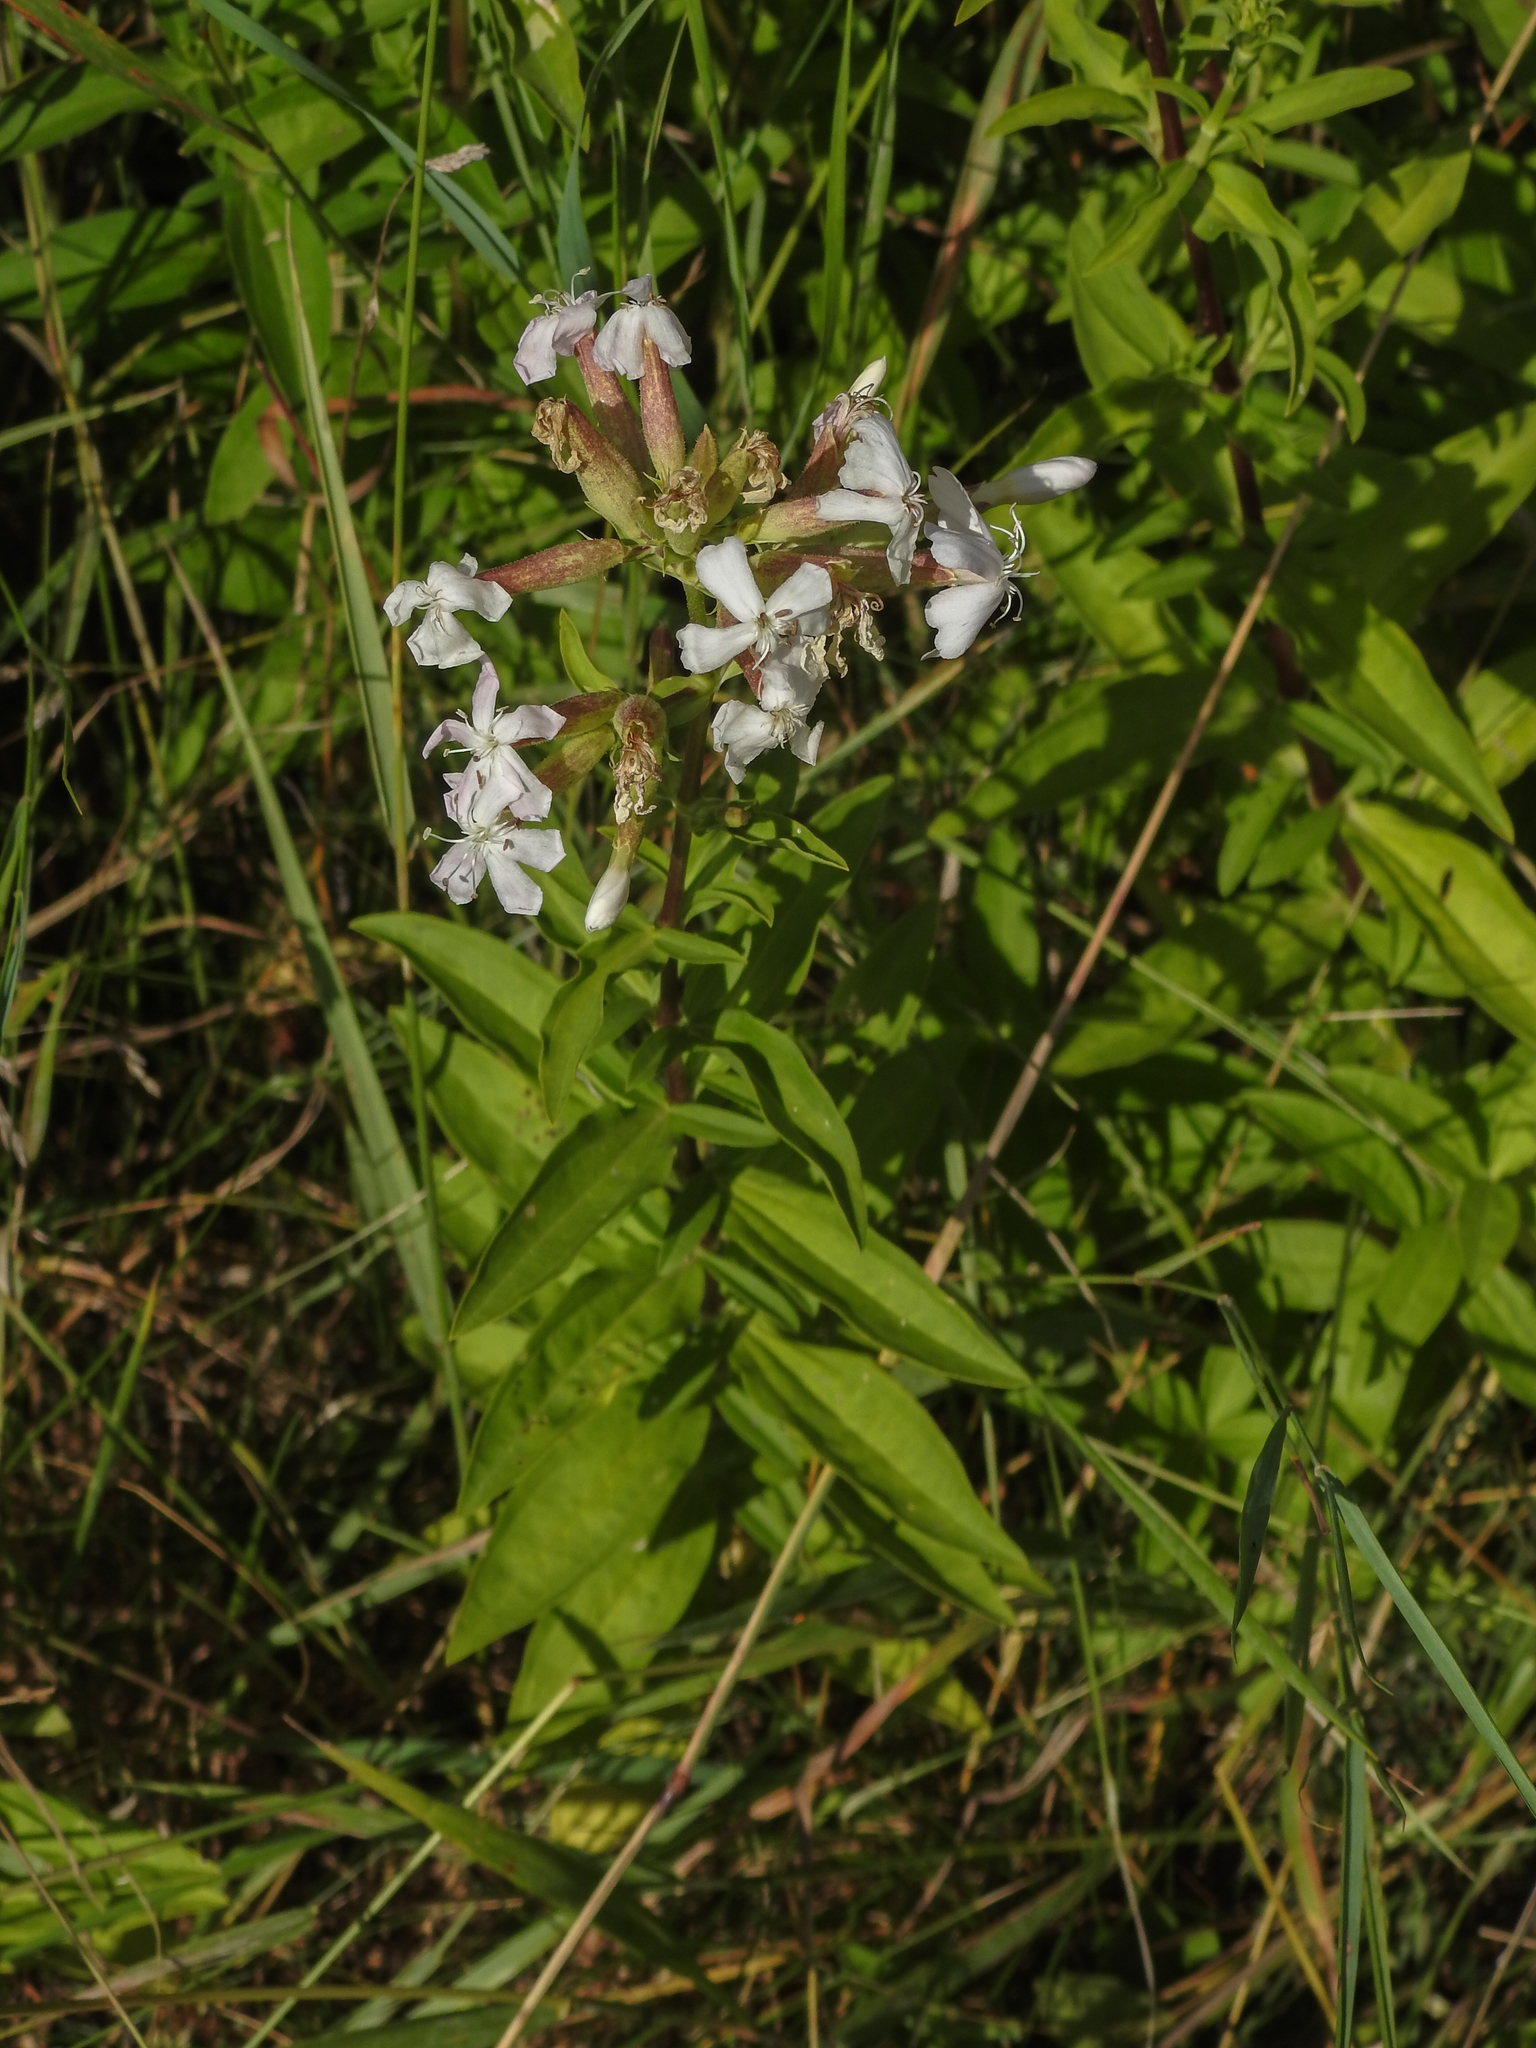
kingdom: Plantae
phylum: Tracheophyta
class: Magnoliopsida
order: Caryophyllales
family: Caryophyllaceae
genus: Saponaria
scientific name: Saponaria officinalis
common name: Soapwort
